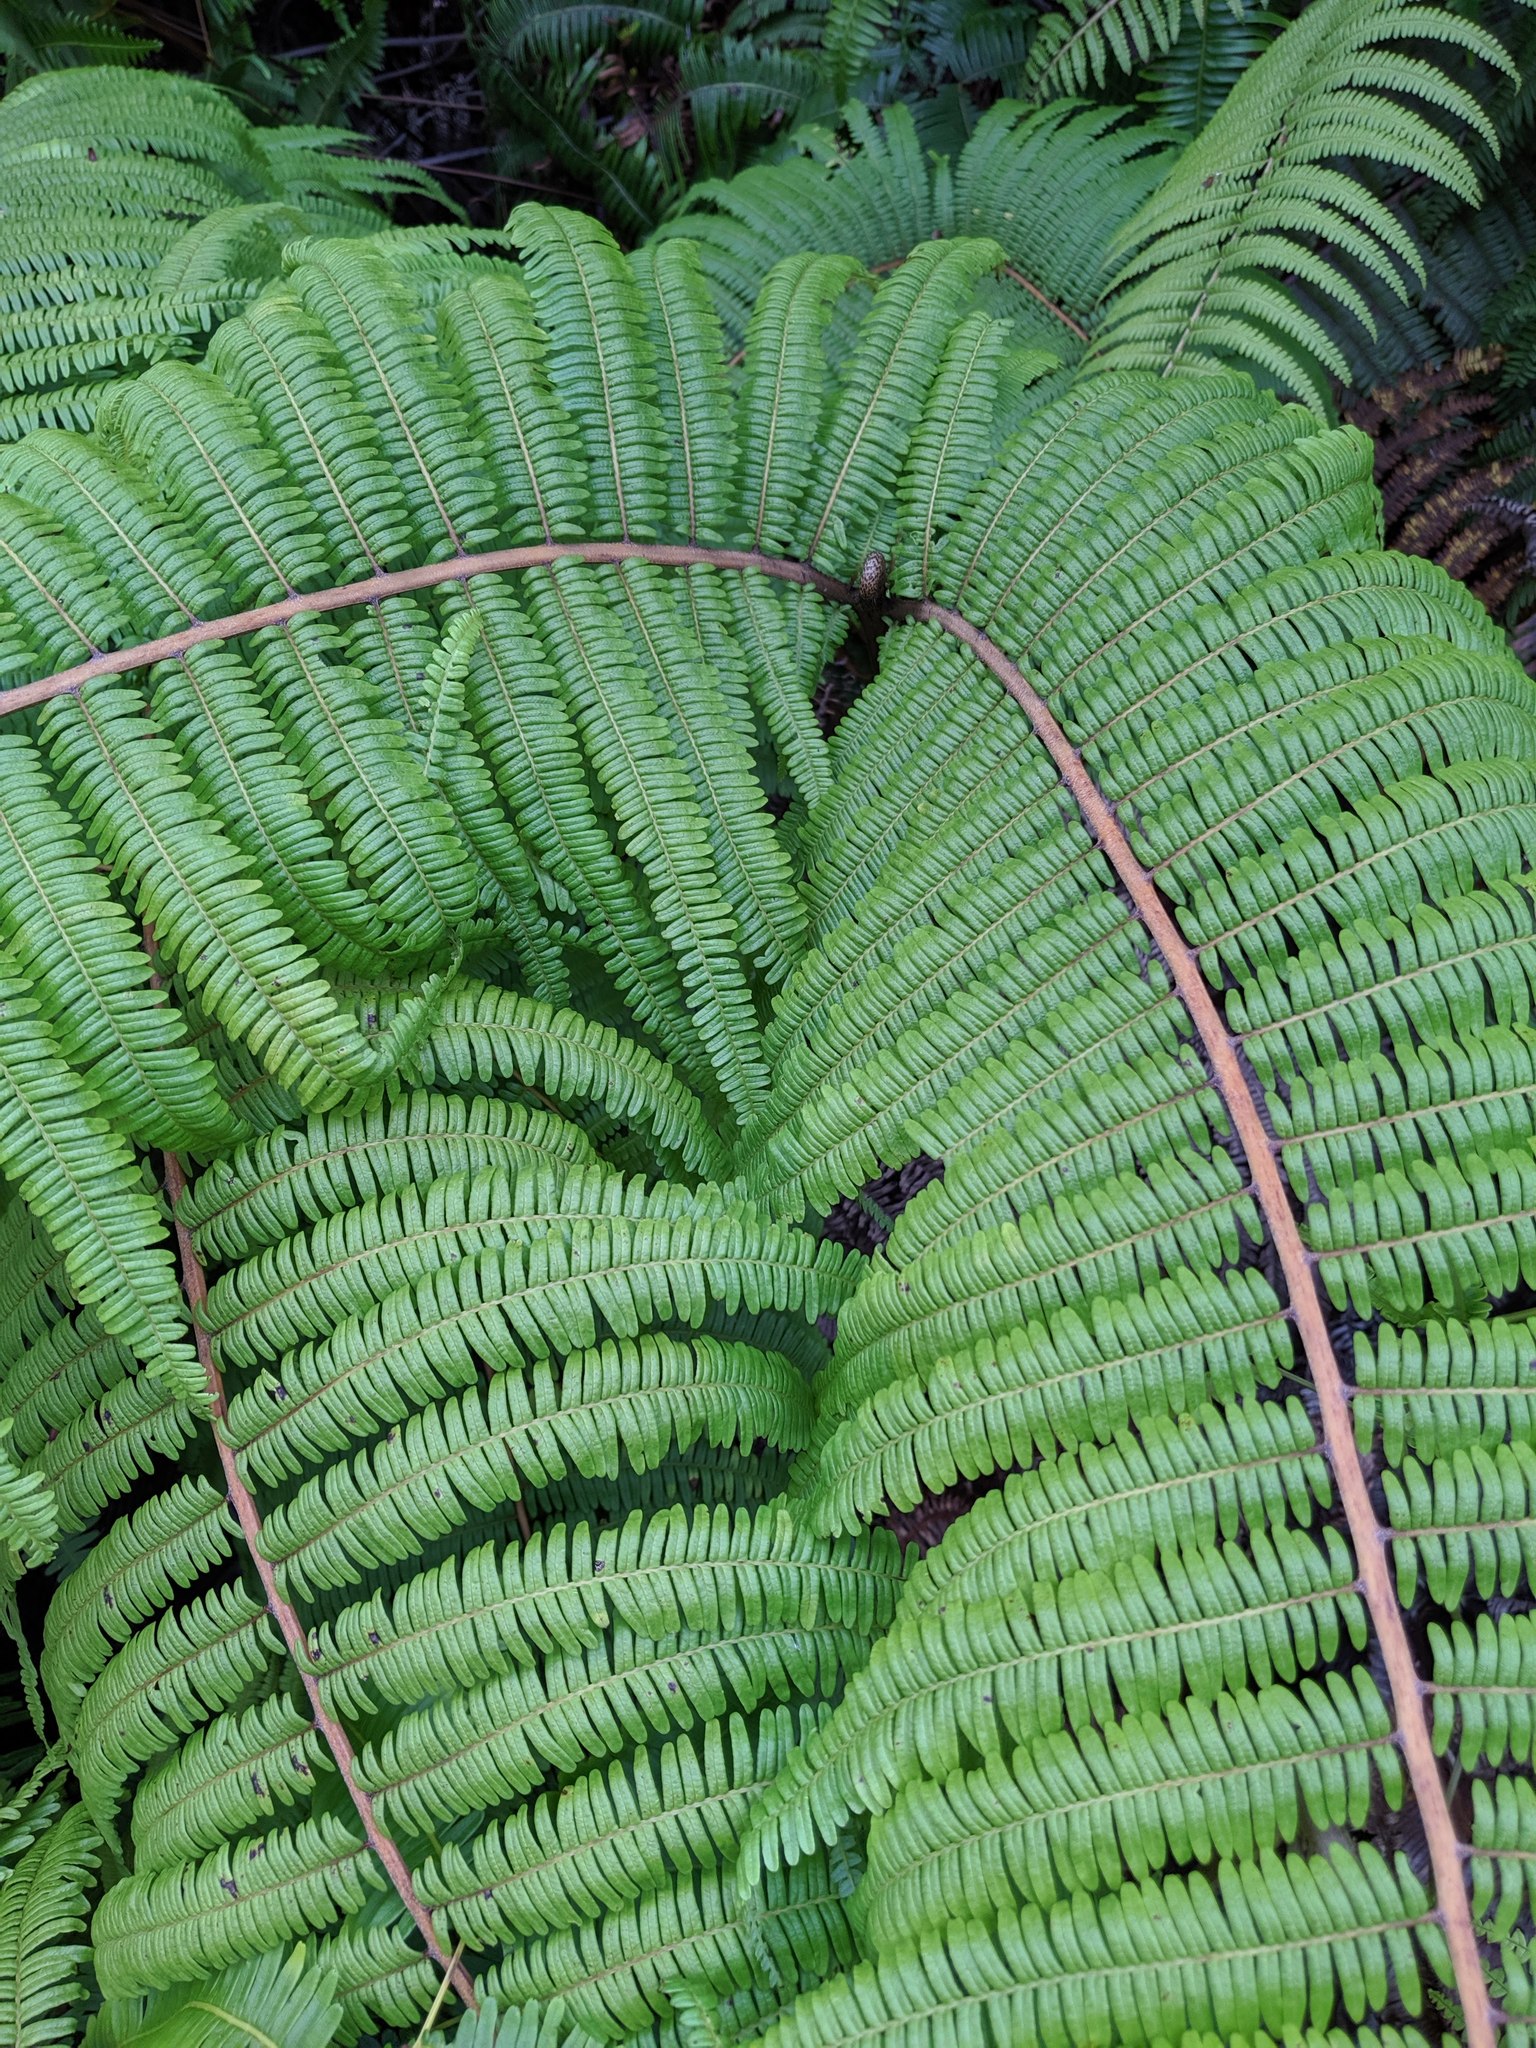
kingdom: Plantae
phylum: Tracheophyta
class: Polypodiopsida
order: Gleicheniales
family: Gleicheniaceae
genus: Diplopterygium
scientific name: Diplopterygium pinnatum
